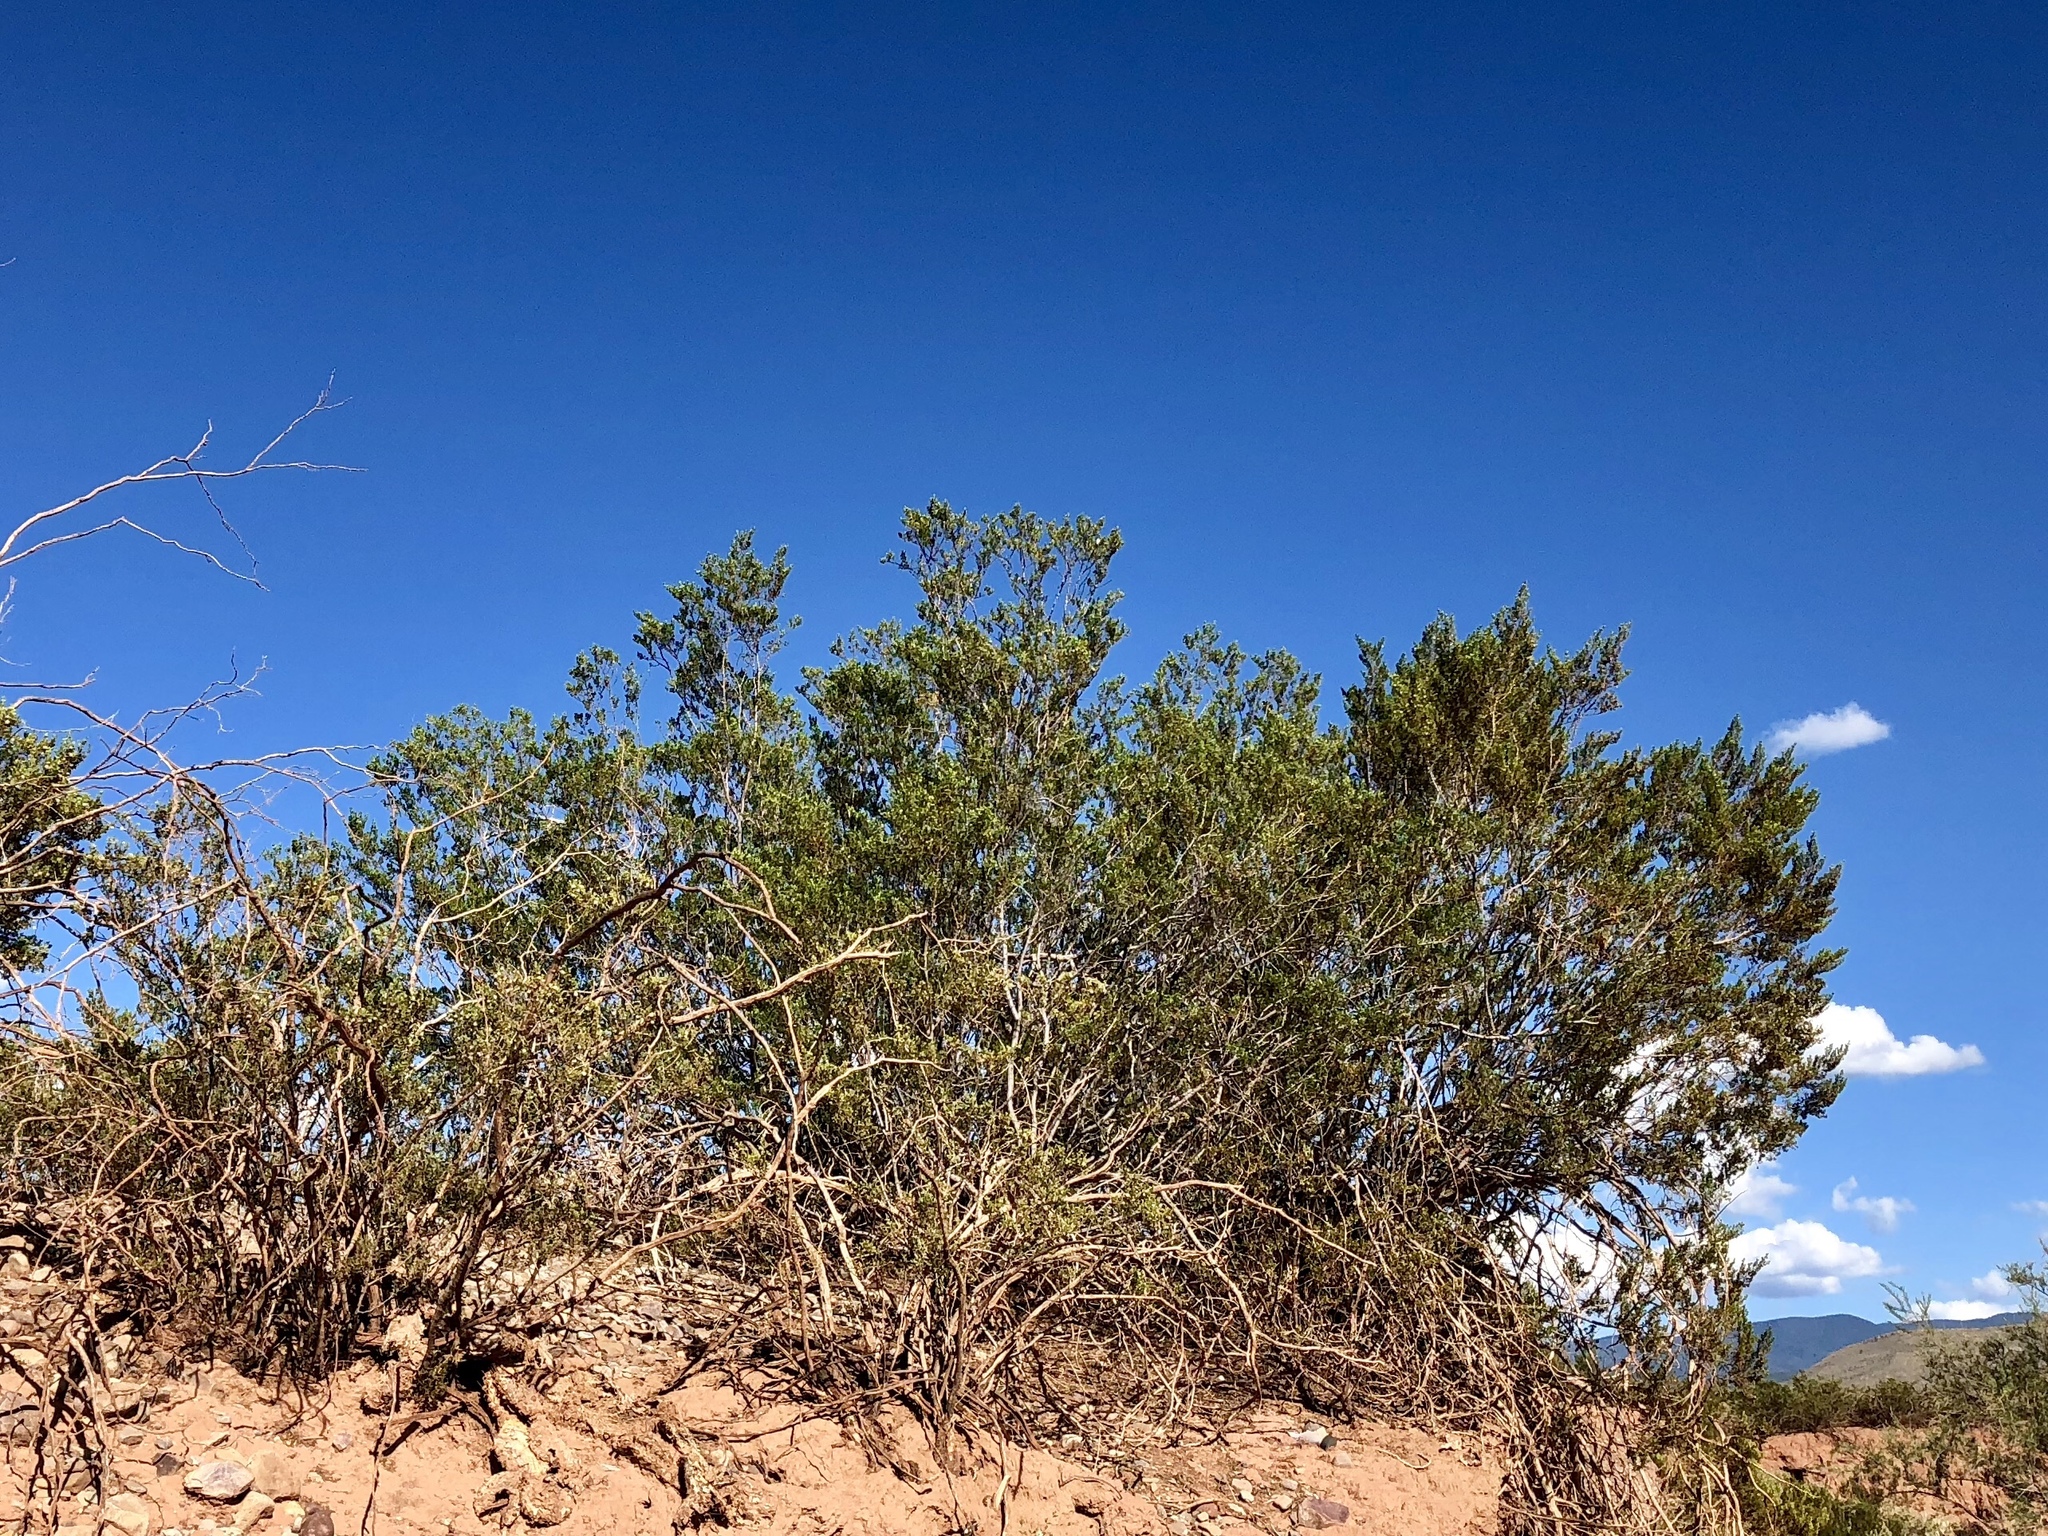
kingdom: Plantae
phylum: Tracheophyta
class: Magnoliopsida
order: Zygophyllales
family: Zygophyllaceae
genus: Larrea
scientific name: Larrea tridentata
